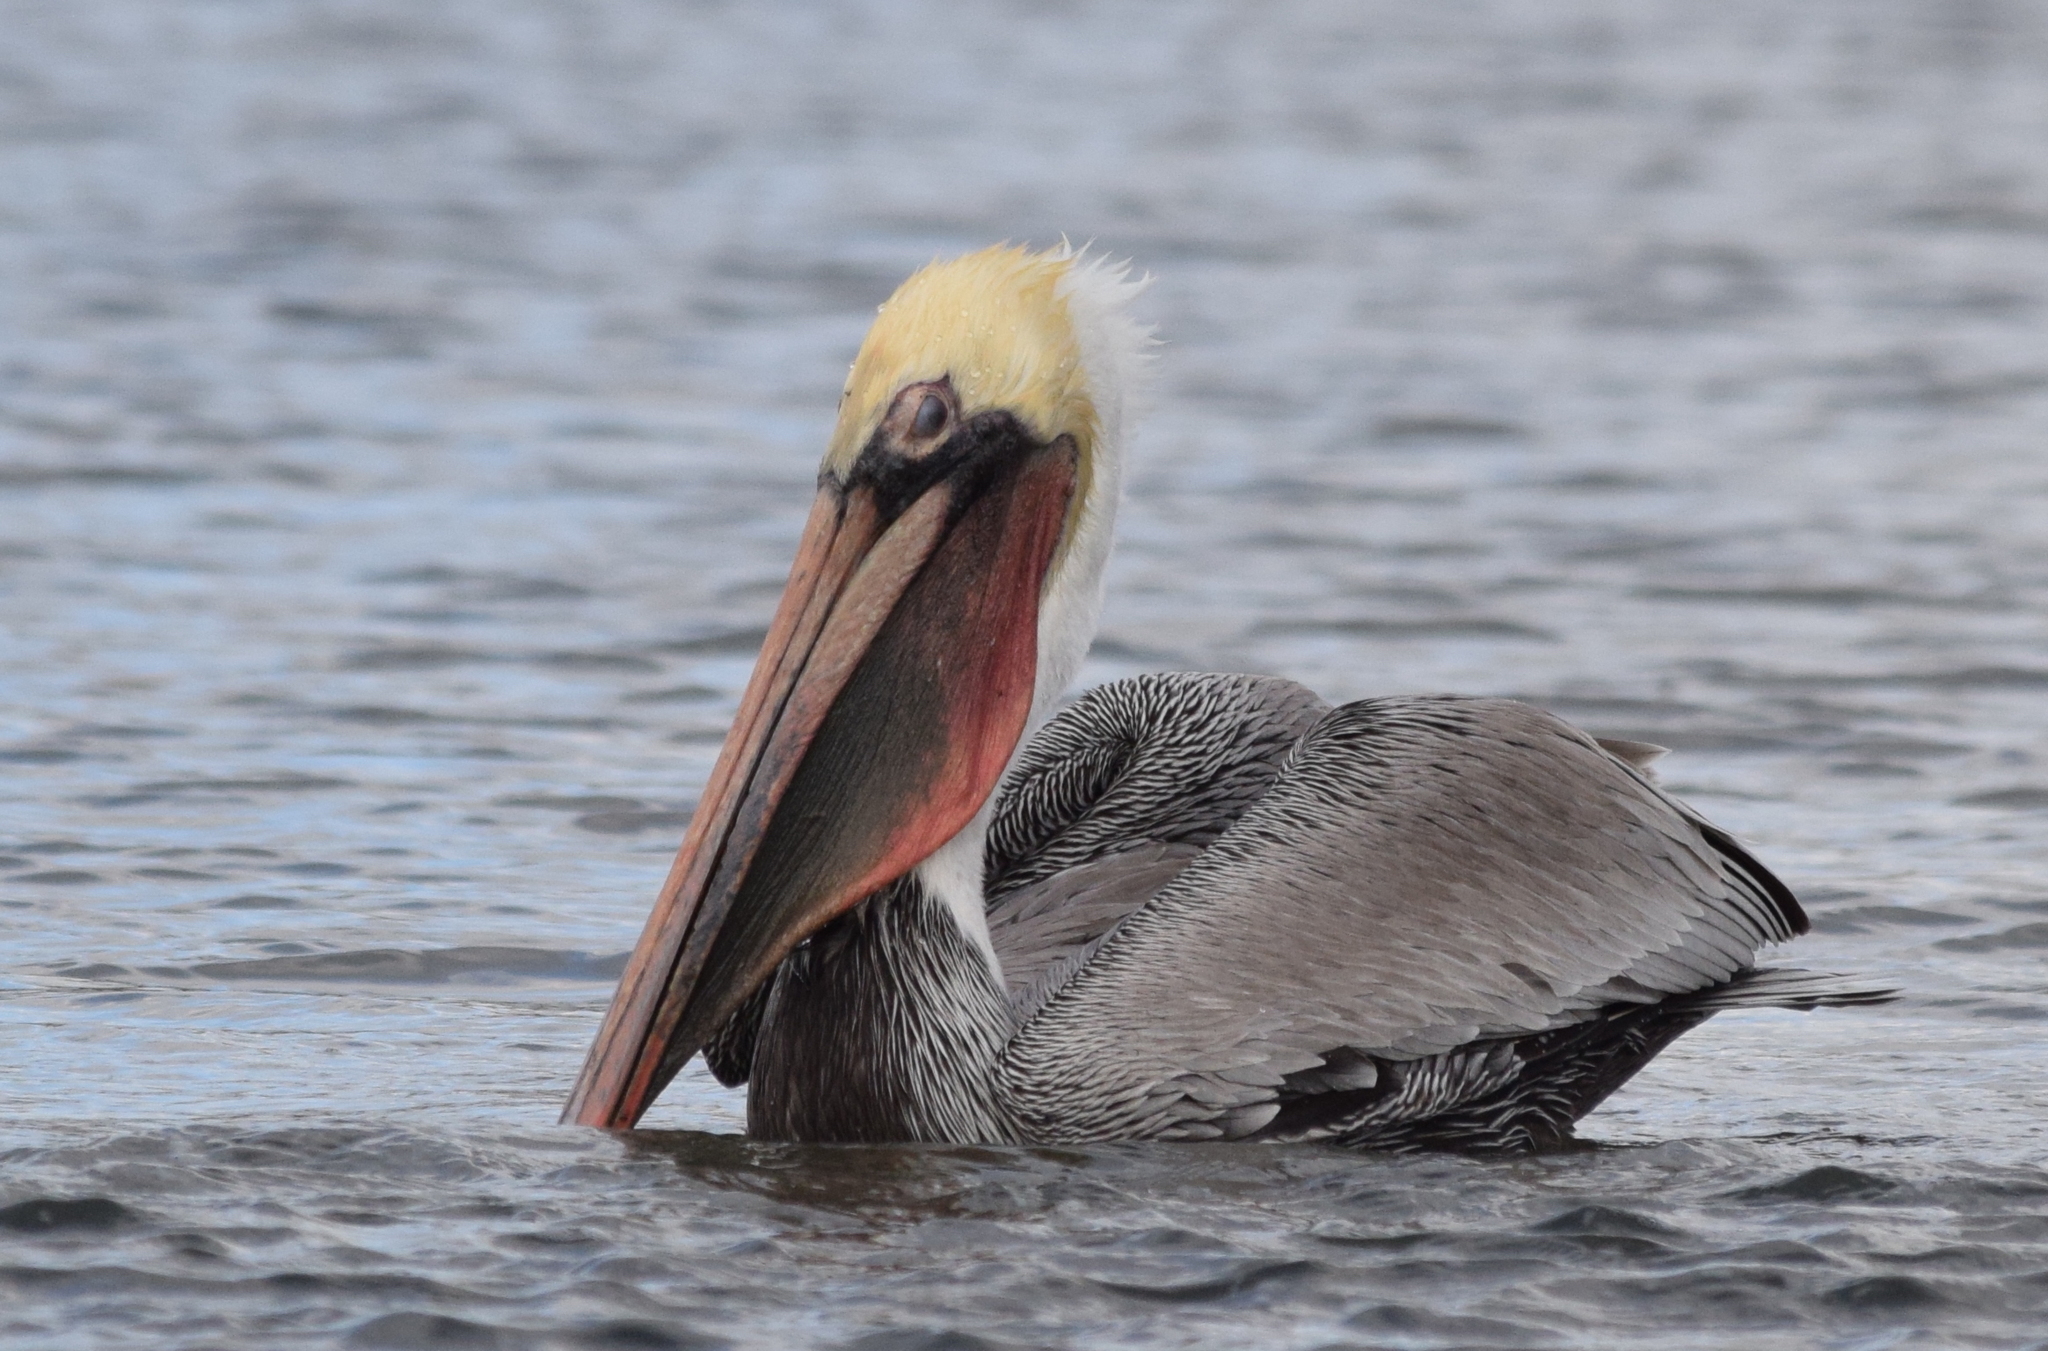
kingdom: Animalia
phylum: Chordata
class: Aves
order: Pelecaniformes
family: Pelecanidae
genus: Pelecanus
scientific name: Pelecanus occidentalis
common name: Brown pelican
